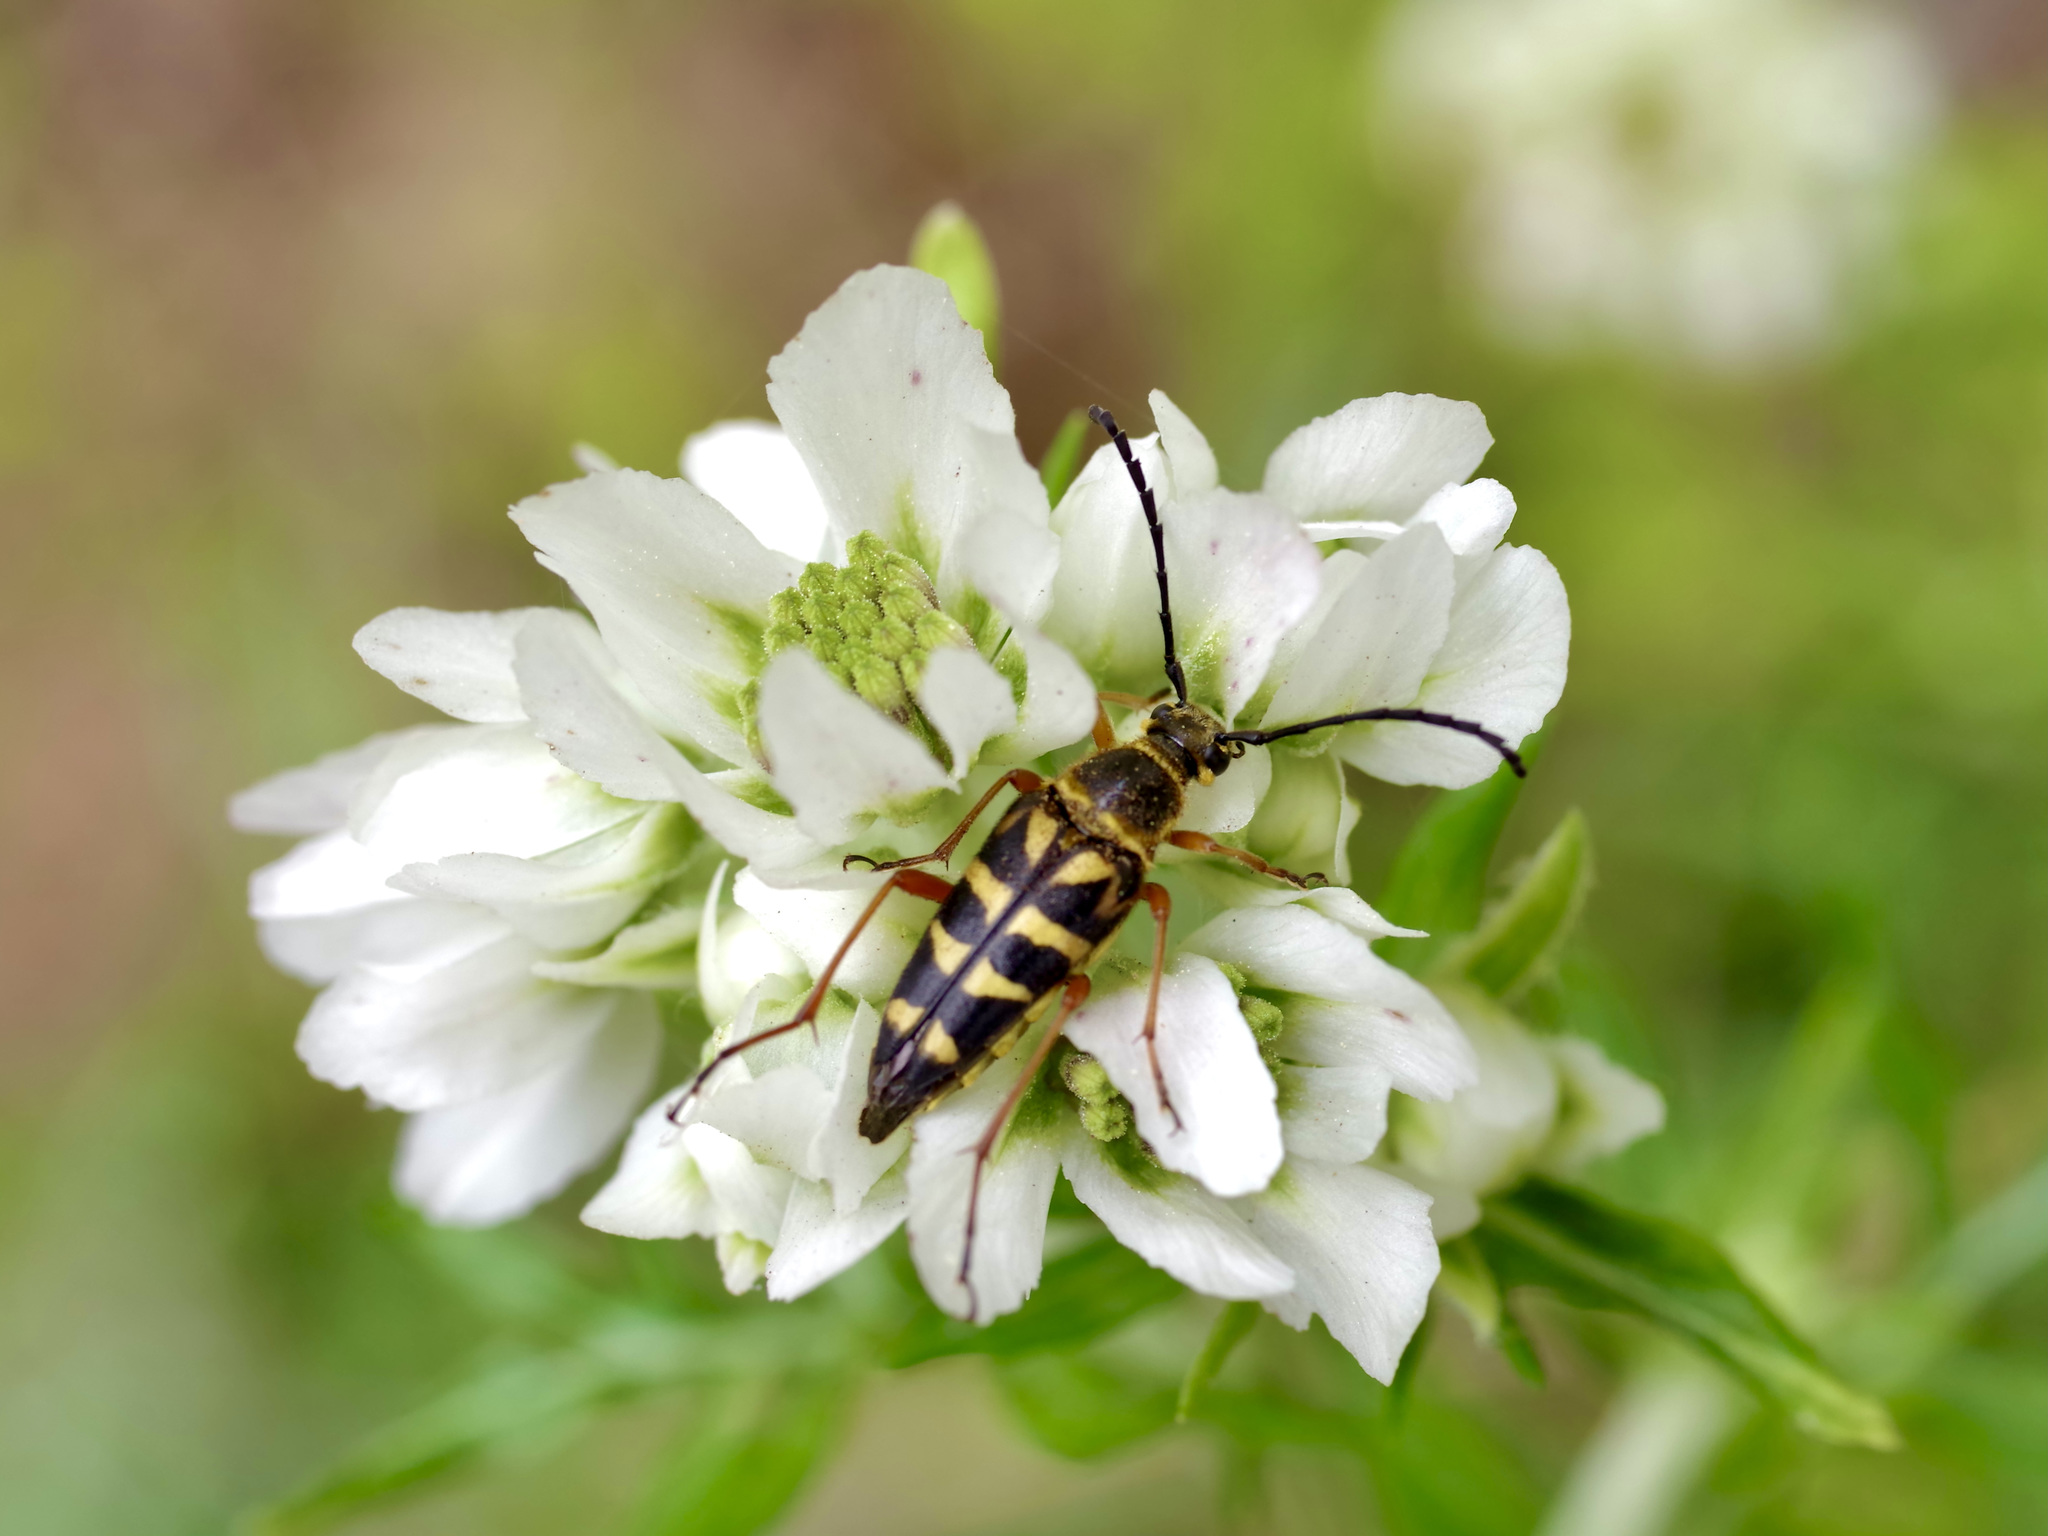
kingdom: Animalia
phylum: Arthropoda
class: Insecta
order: Coleoptera
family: Cerambycidae
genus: Typocerus
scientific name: Typocerus zebra
